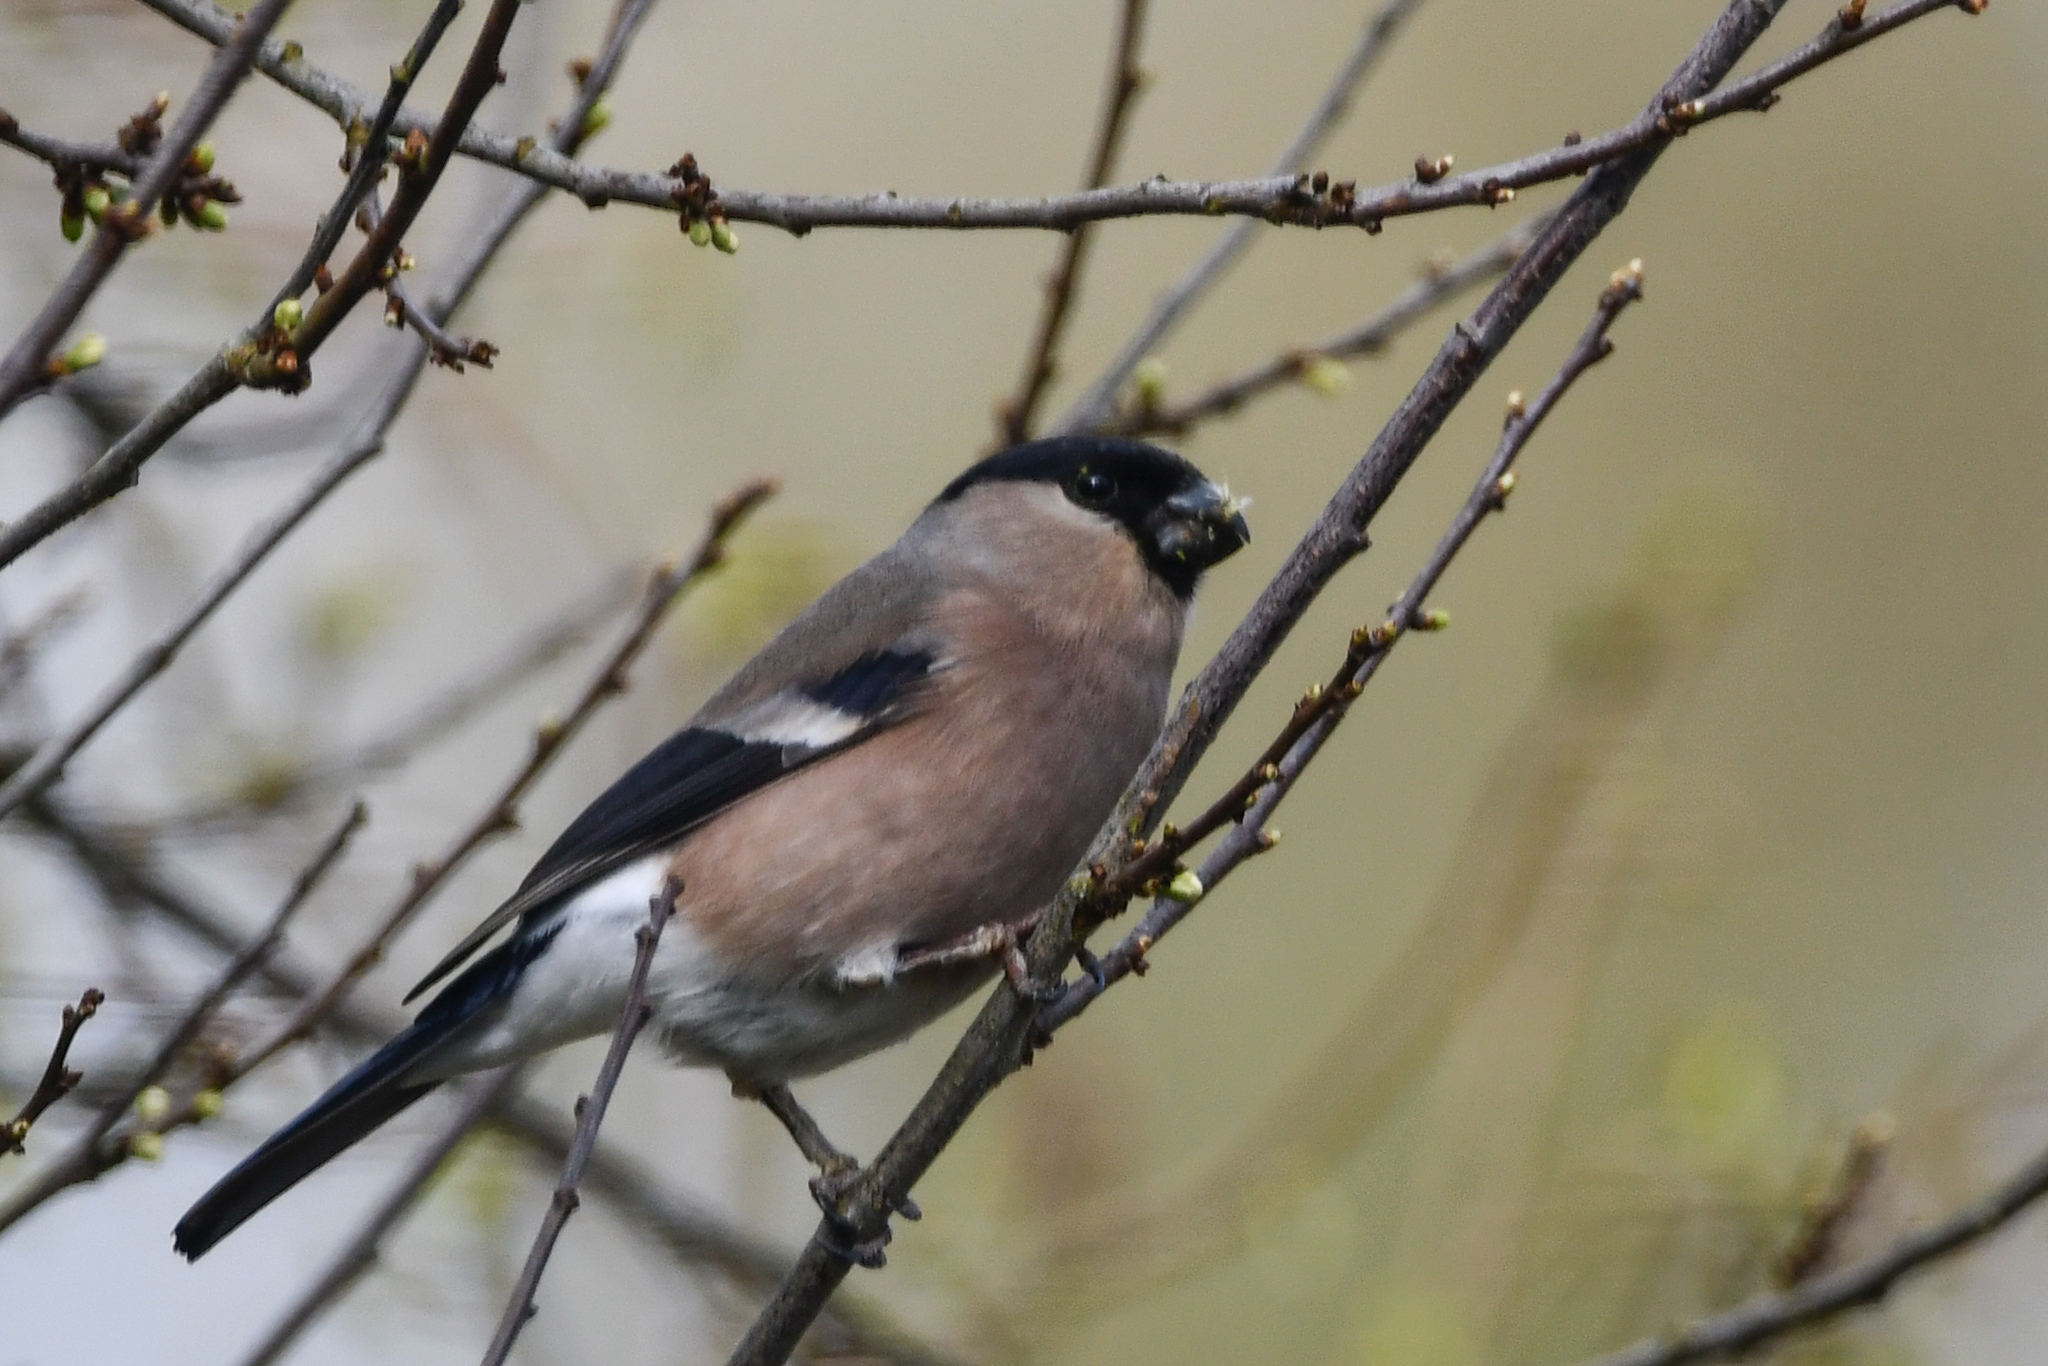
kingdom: Animalia
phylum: Chordata
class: Aves
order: Passeriformes
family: Fringillidae
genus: Pyrrhula
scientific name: Pyrrhula pyrrhula
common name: Eurasian bullfinch
